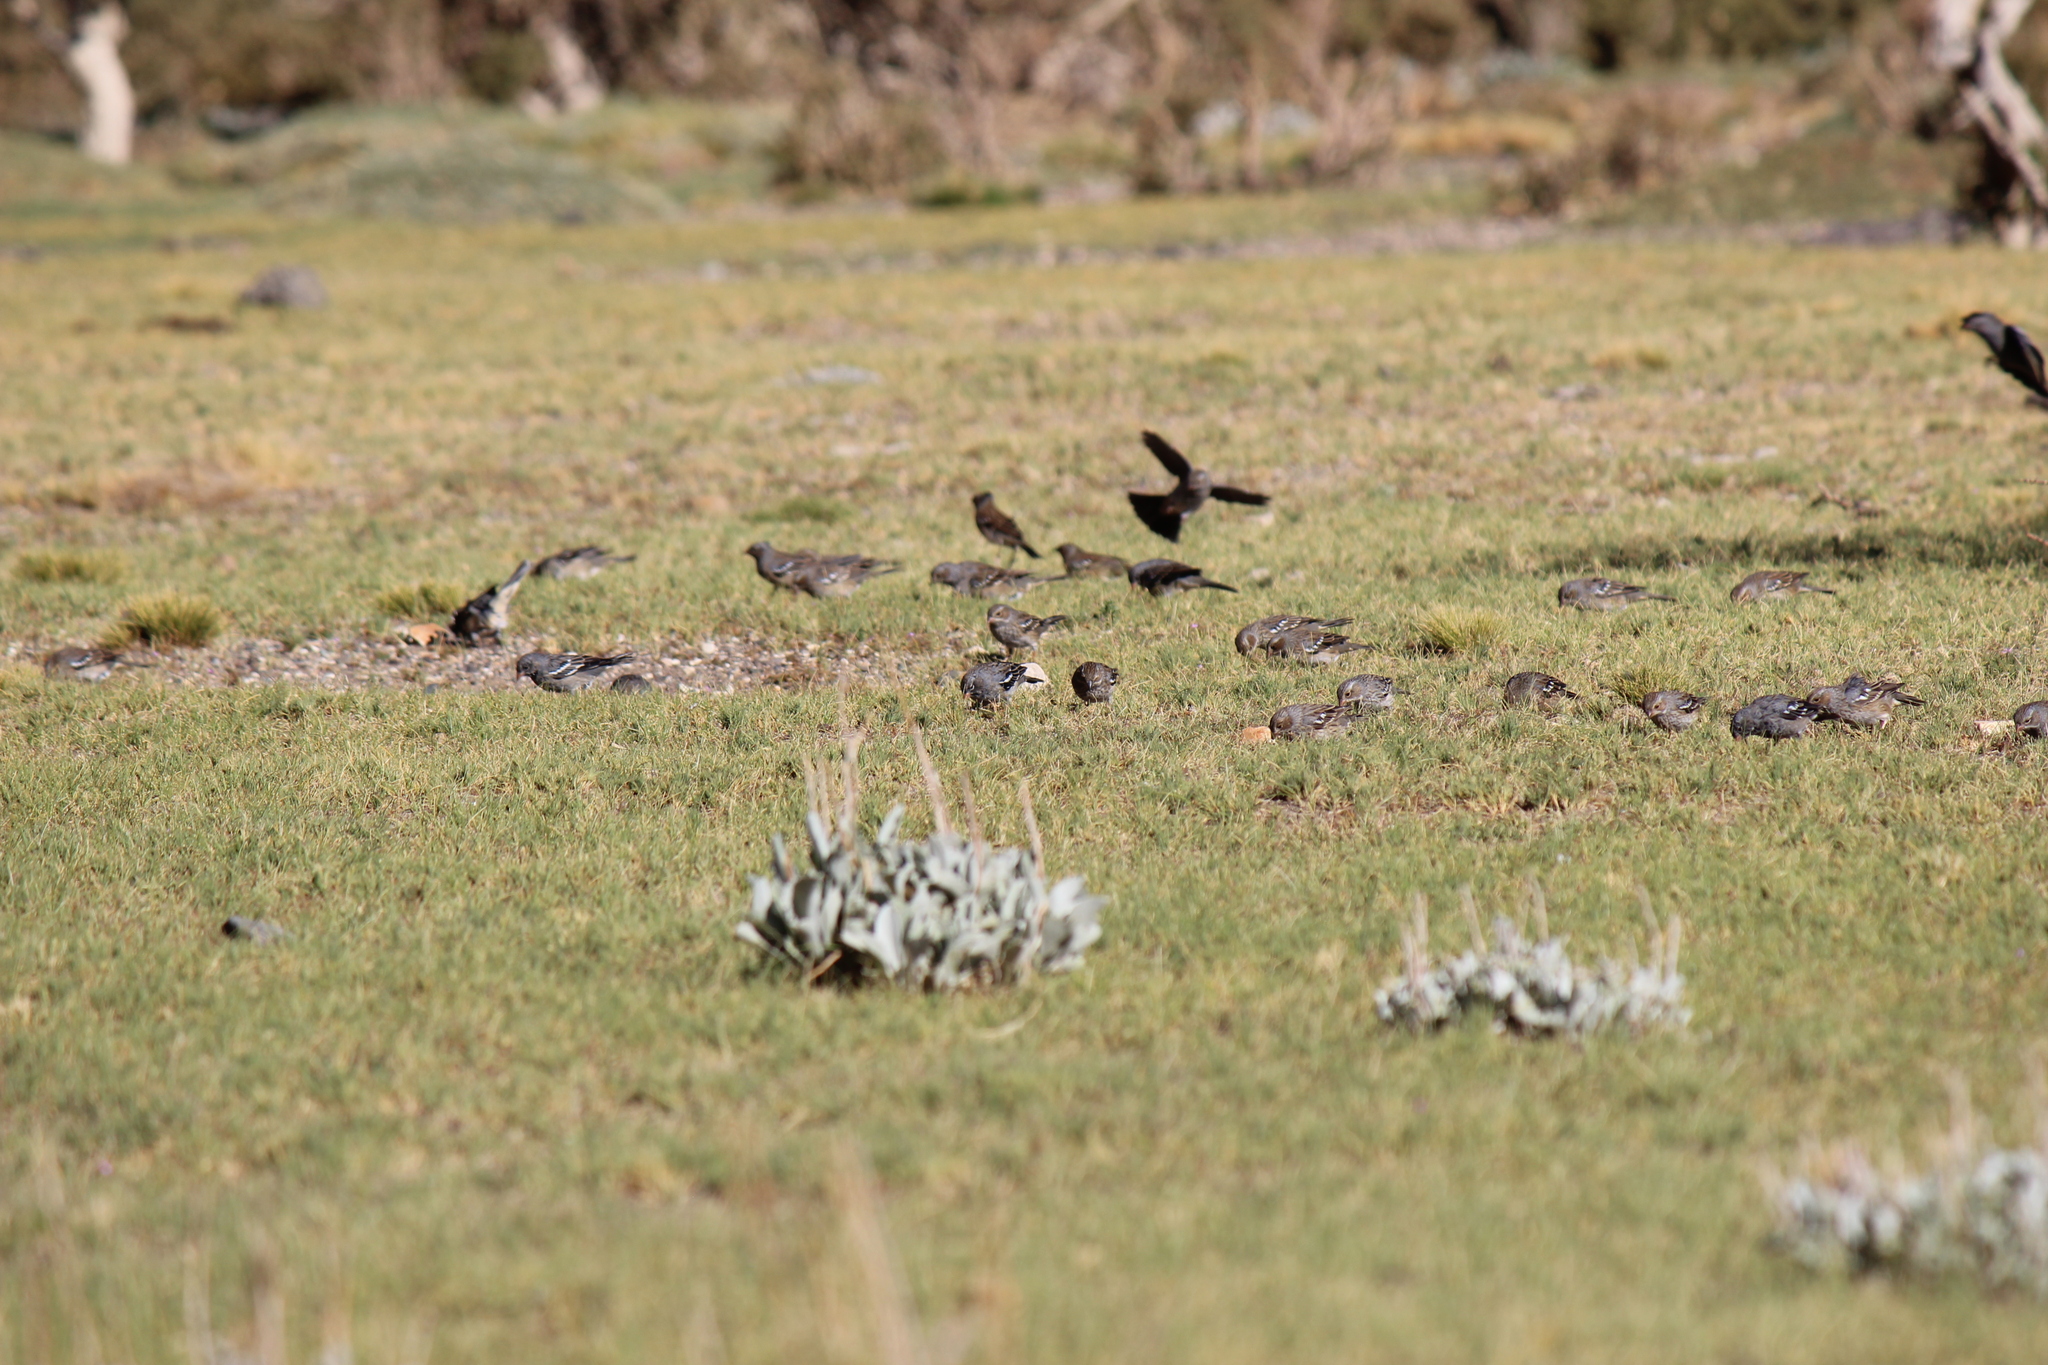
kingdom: Animalia
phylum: Chordata
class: Aves
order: Passeriformes
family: Thraupidae
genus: Rhopospina
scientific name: Rhopospina fruticeti
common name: Mourning sierra finch
